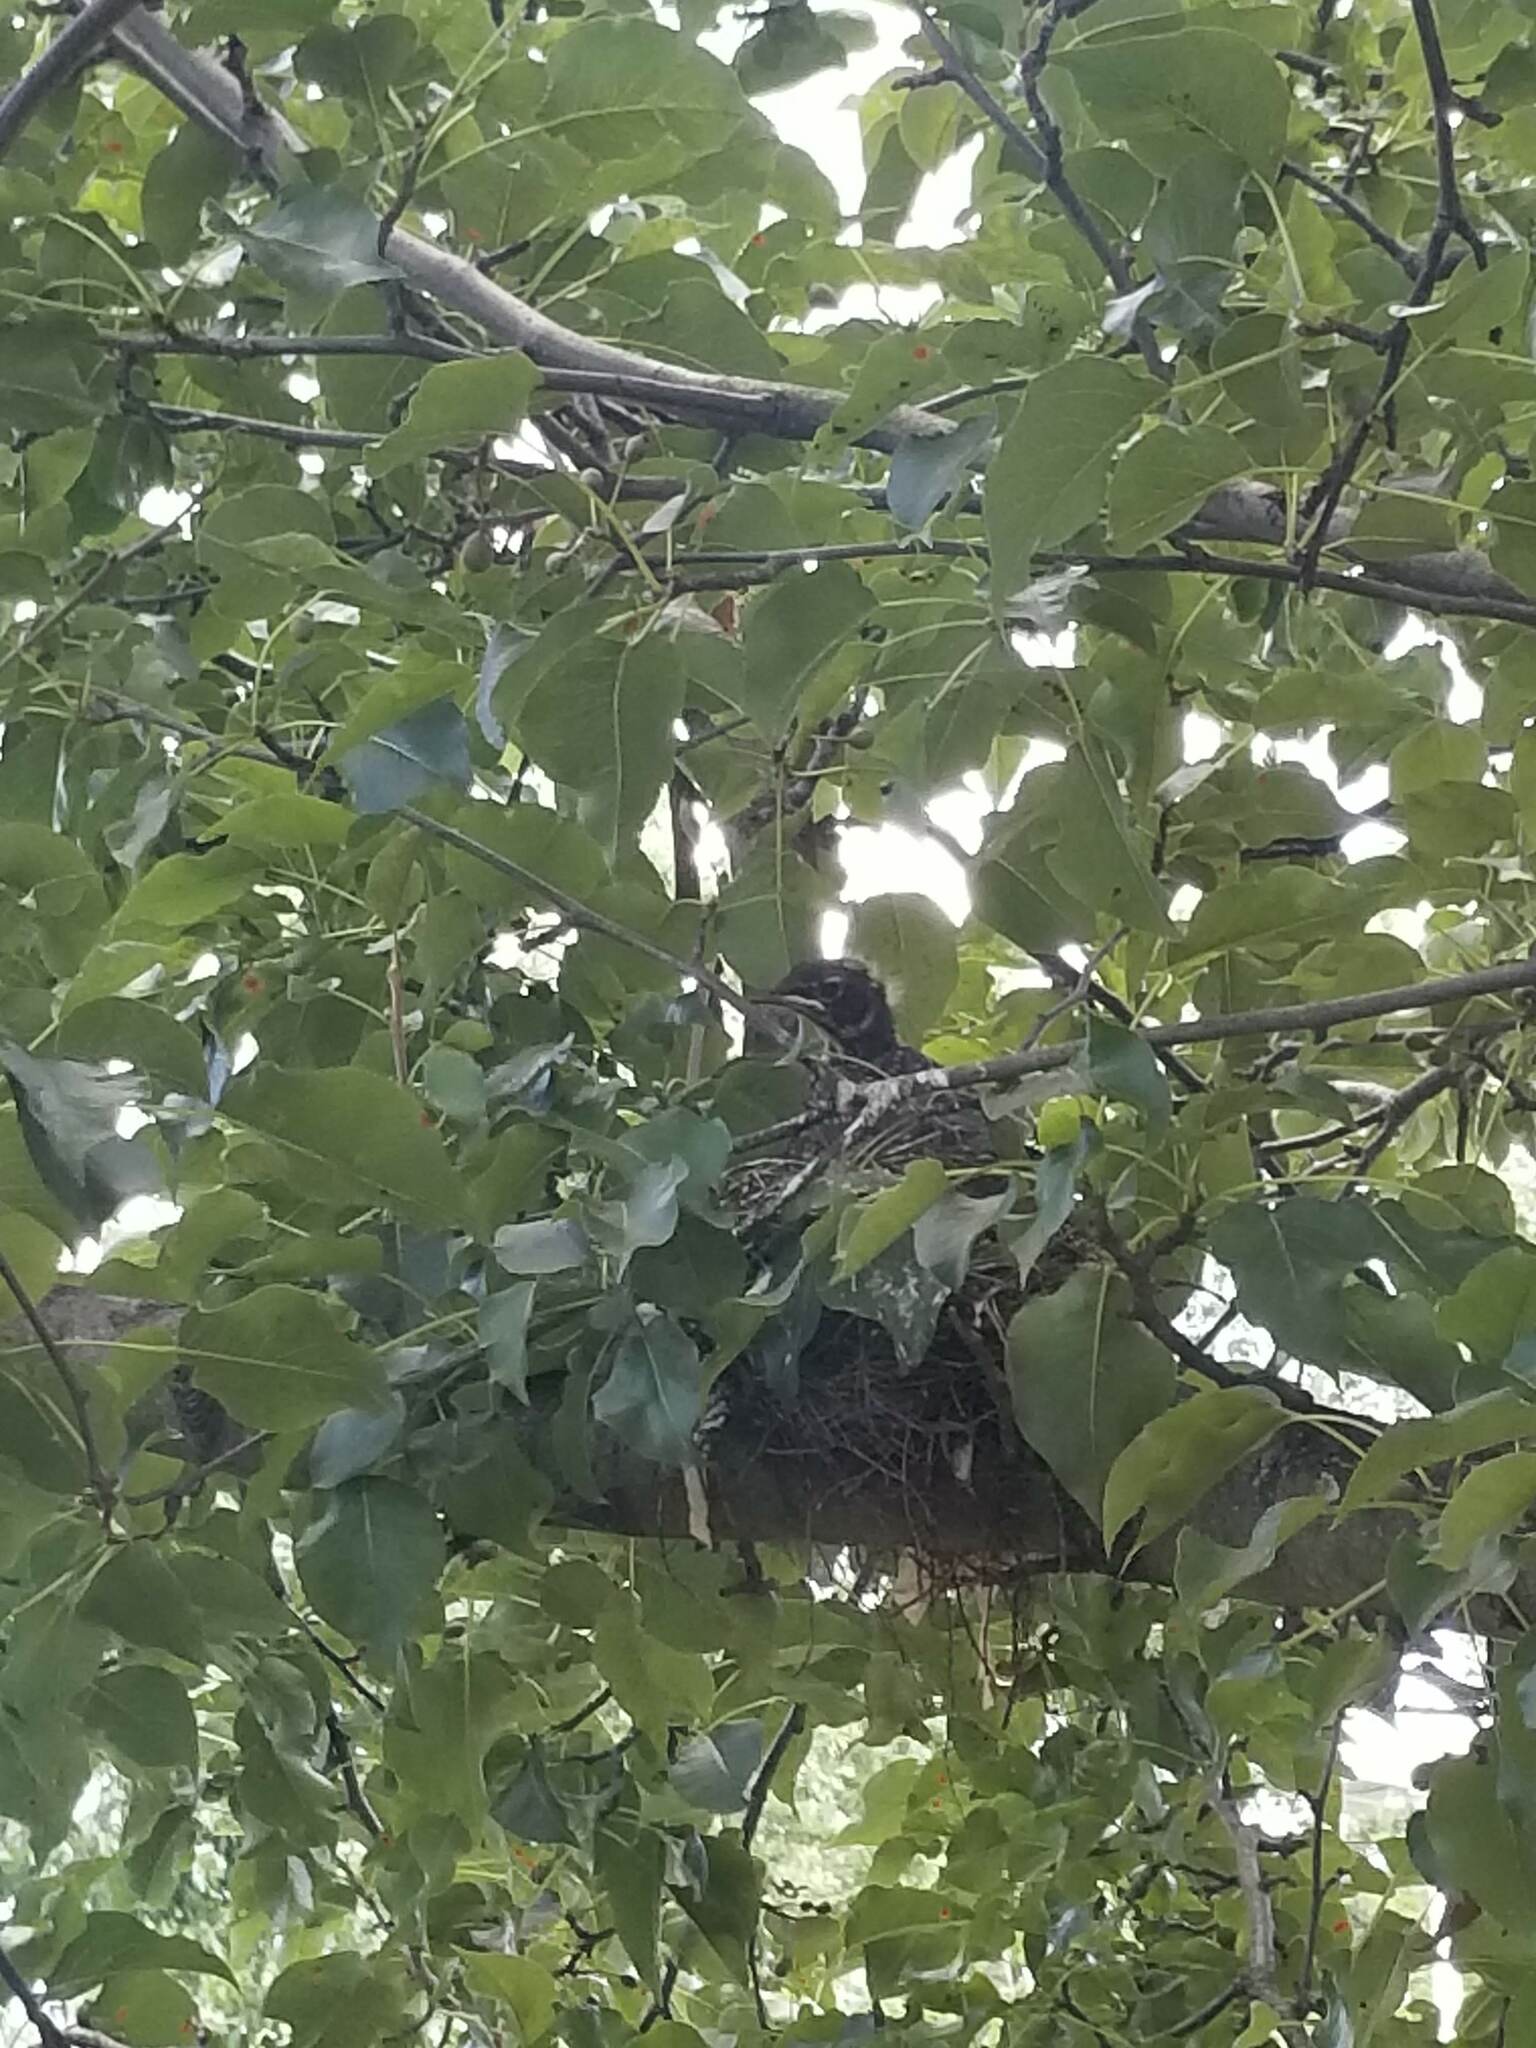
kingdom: Animalia
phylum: Chordata
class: Aves
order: Passeriformes
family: Turdidae
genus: Turdus
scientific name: Turdus migratorius
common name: American robin
